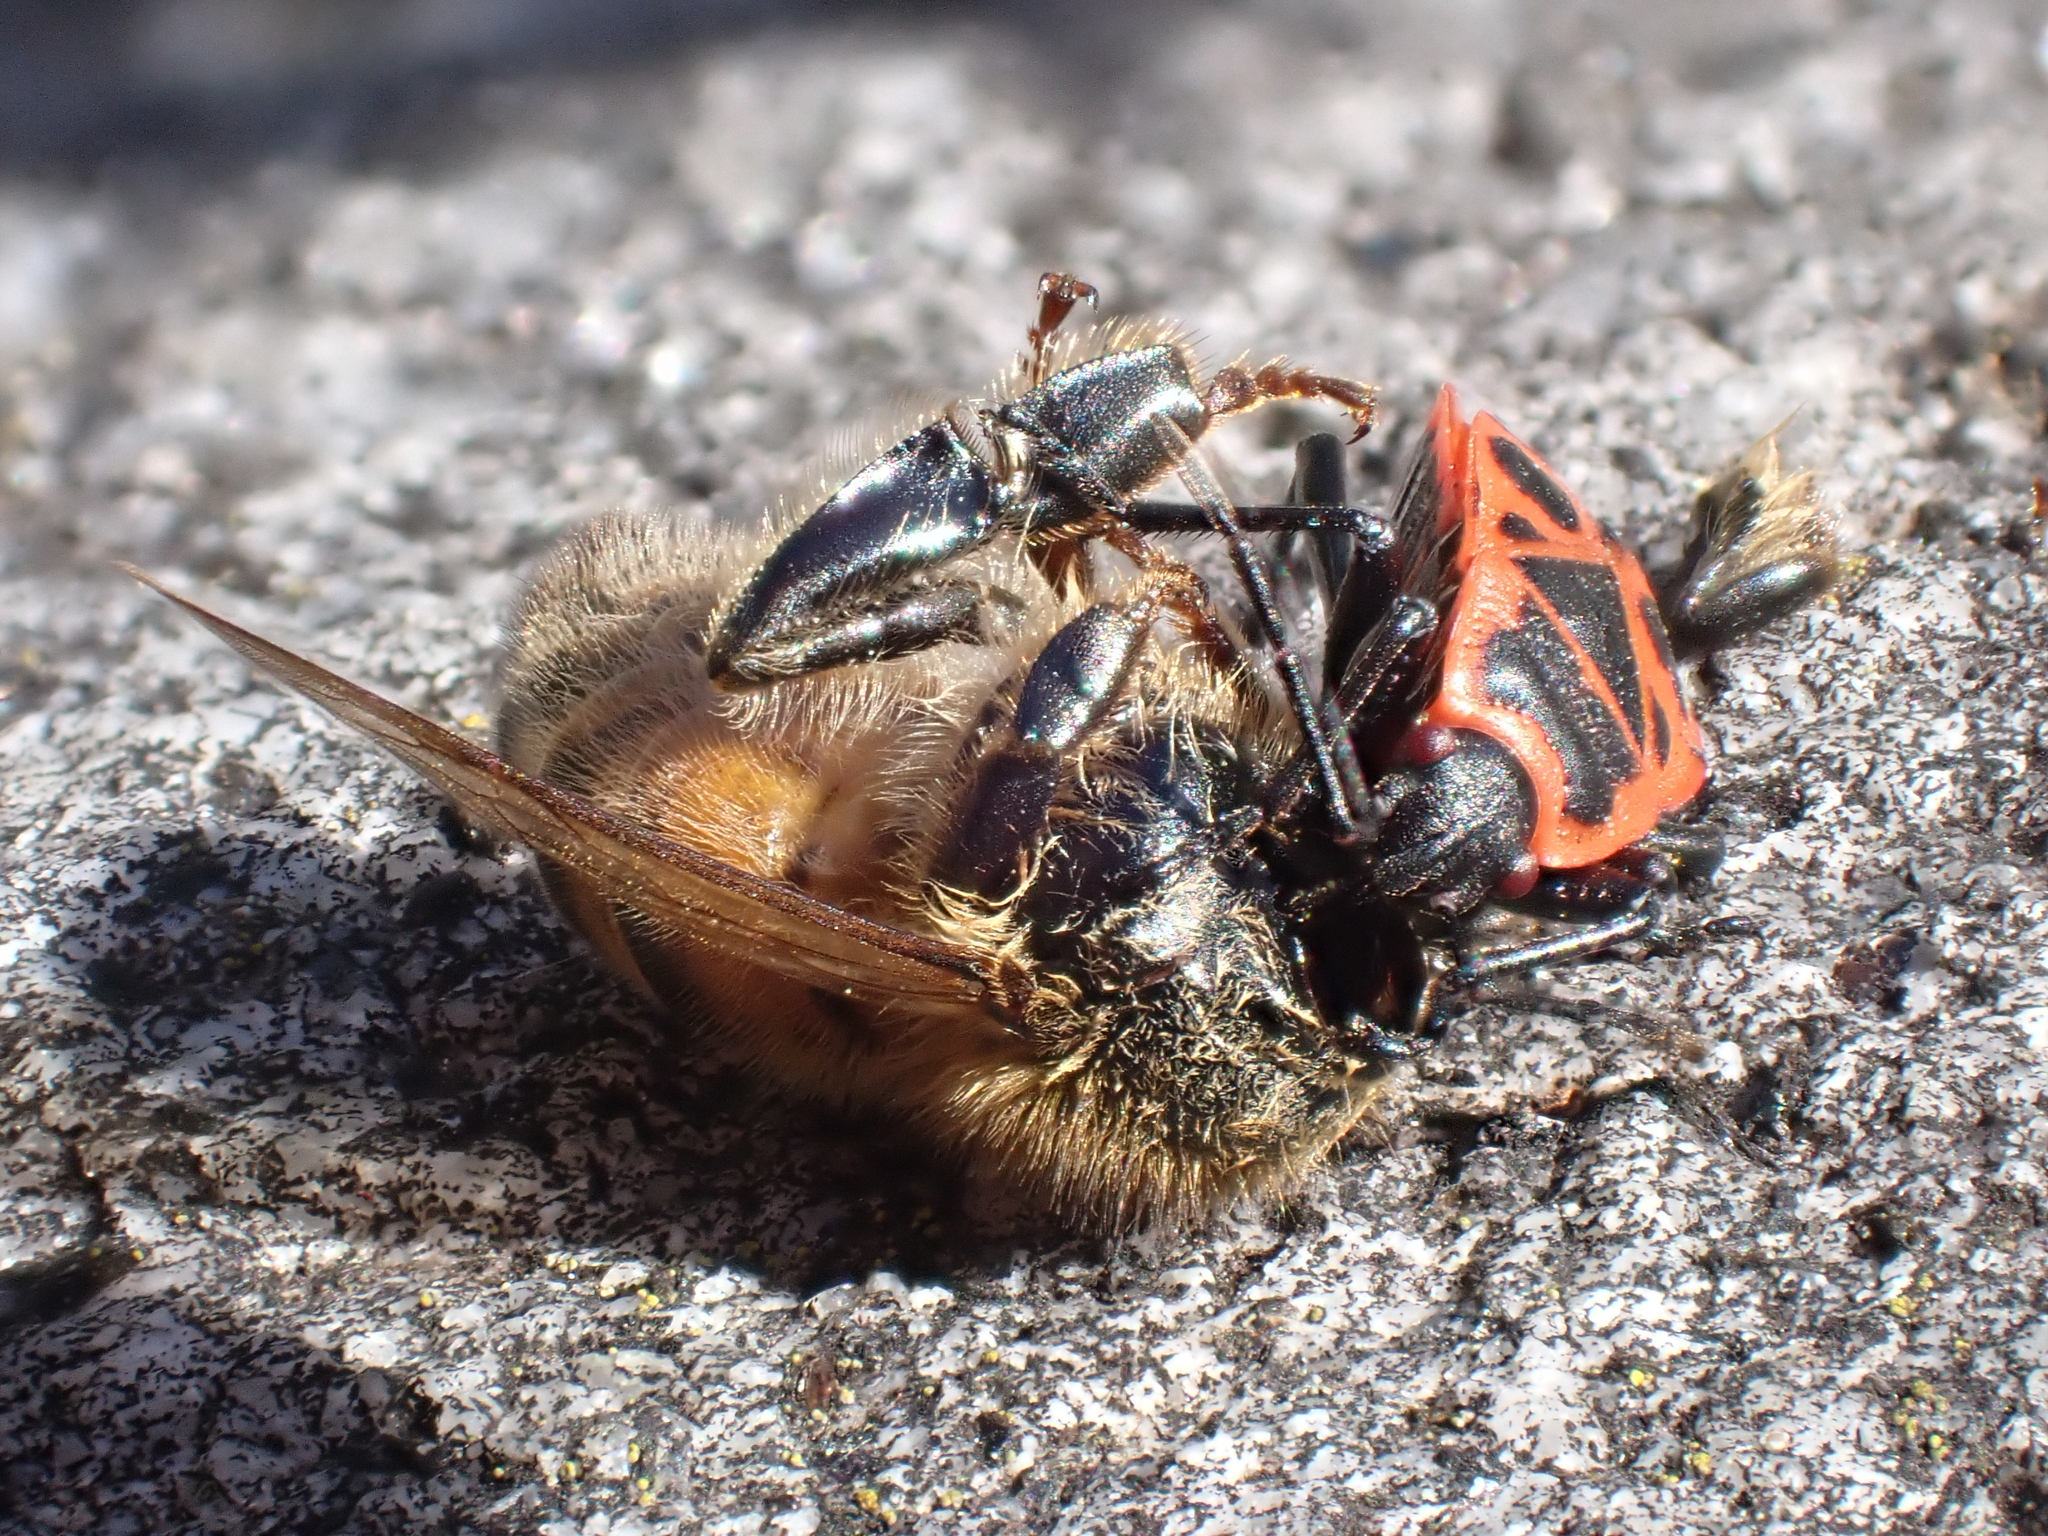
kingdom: Animalia
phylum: Arthropoda
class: Insecta
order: Hymenoptera
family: Apidae
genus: Apis
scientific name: Apis mellifera
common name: Honey bee
